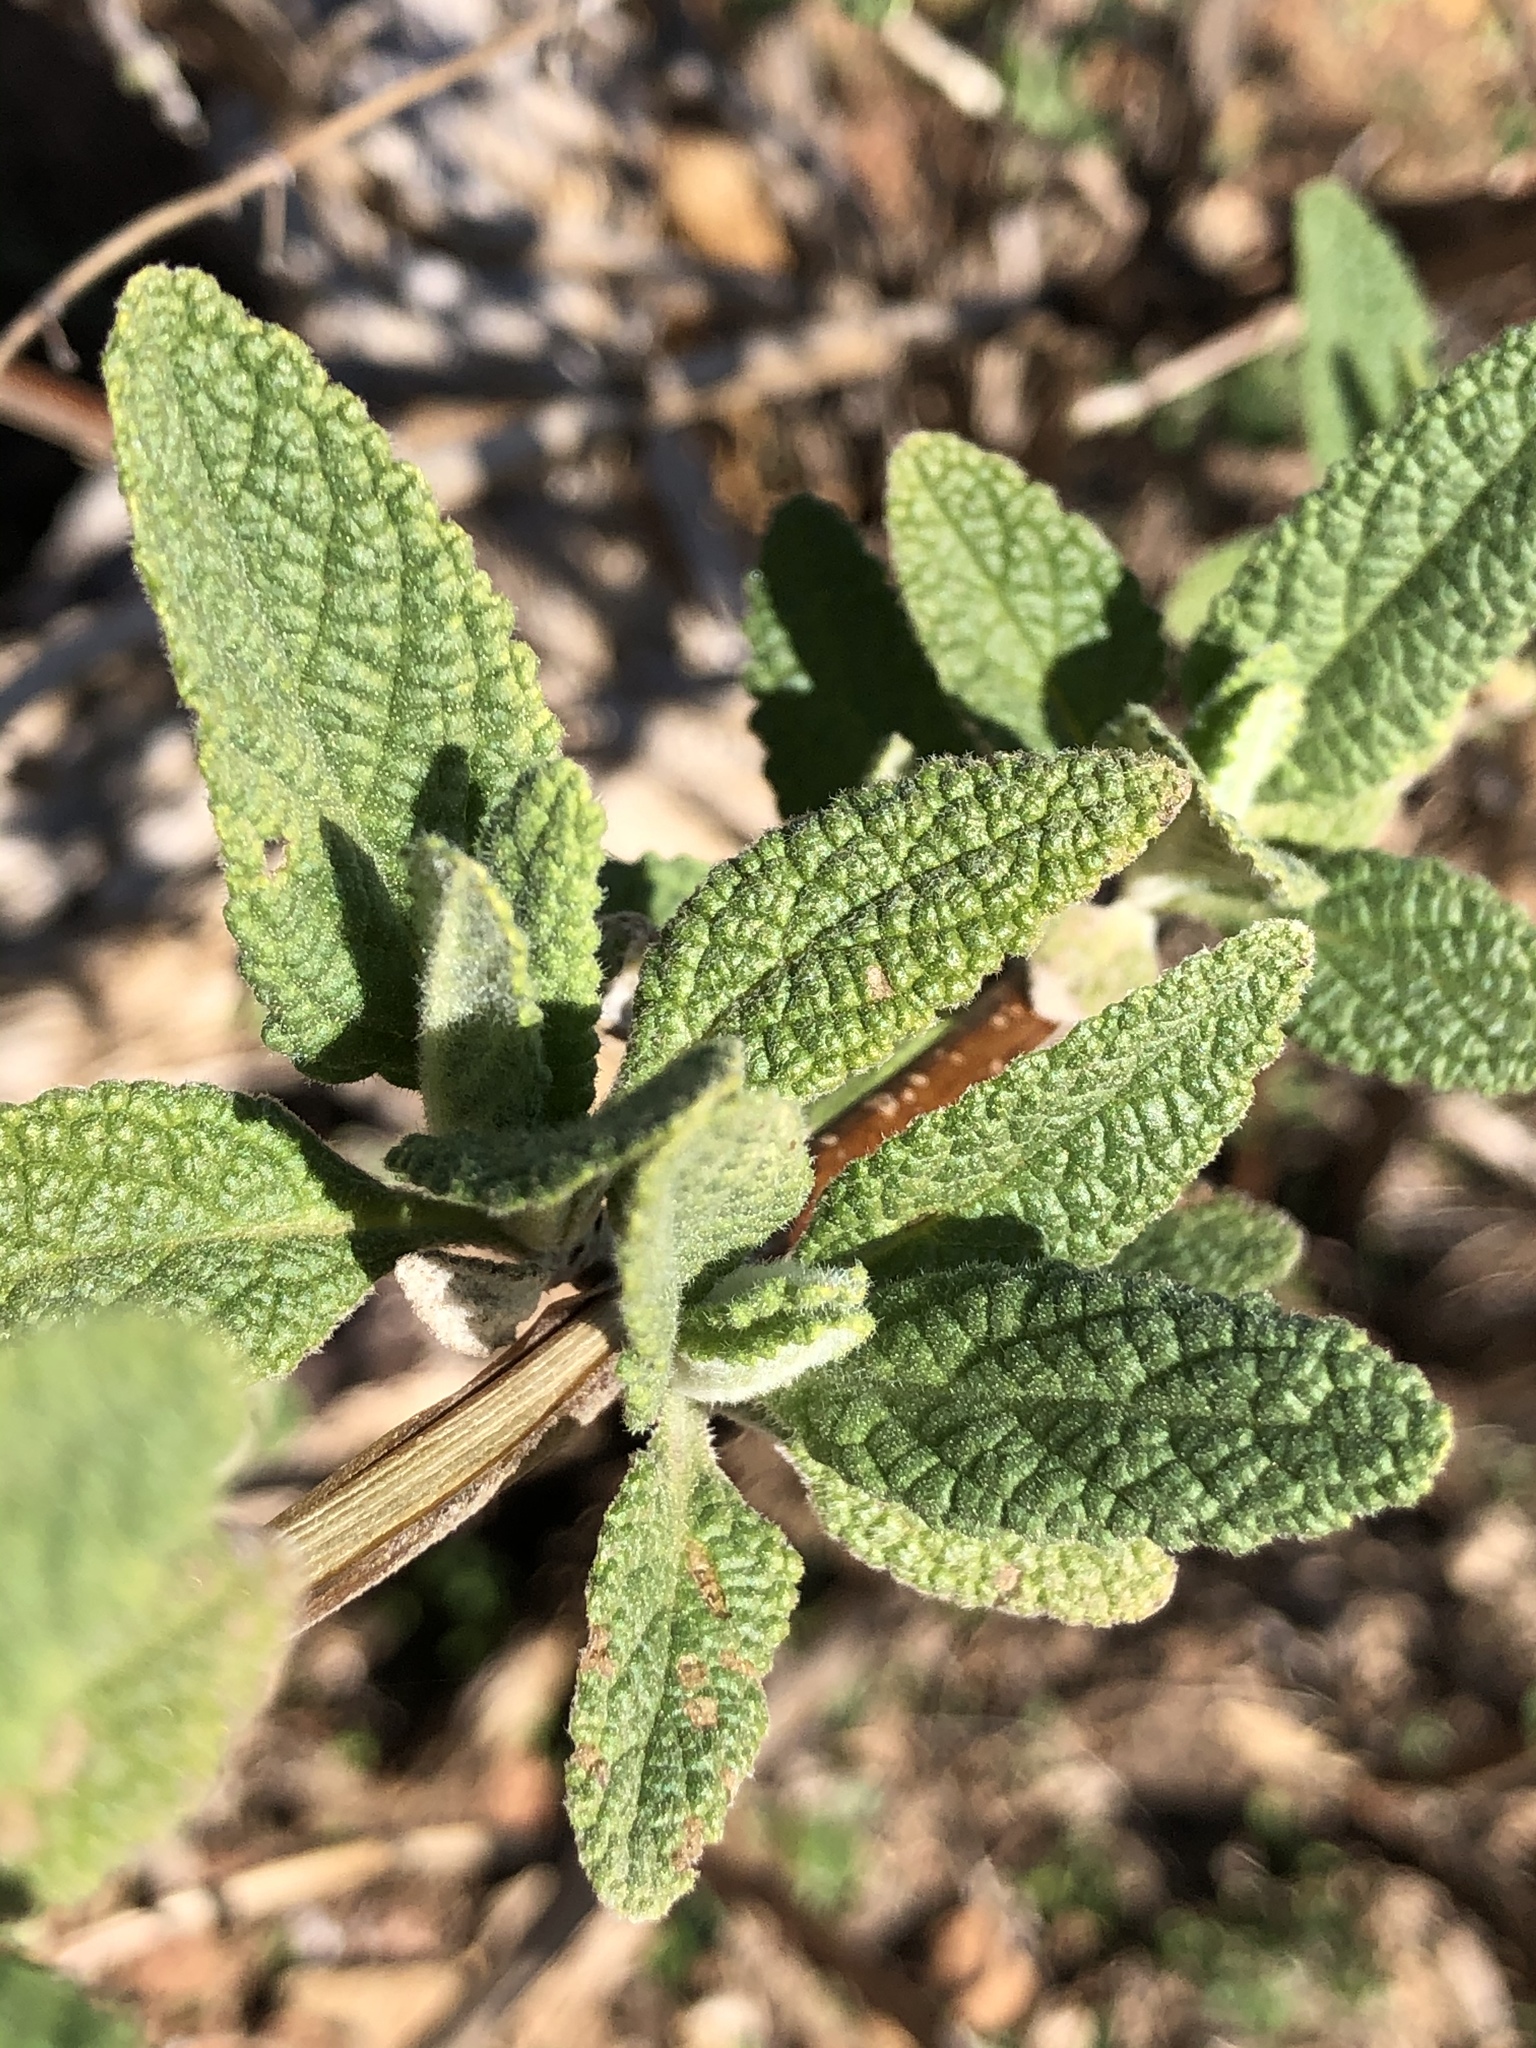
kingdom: Plantae
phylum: Tracheophyta
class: Magnoliopsida
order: Lamiales
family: Lamiaceae
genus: Lepechinia
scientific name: Lepechinia calycina
